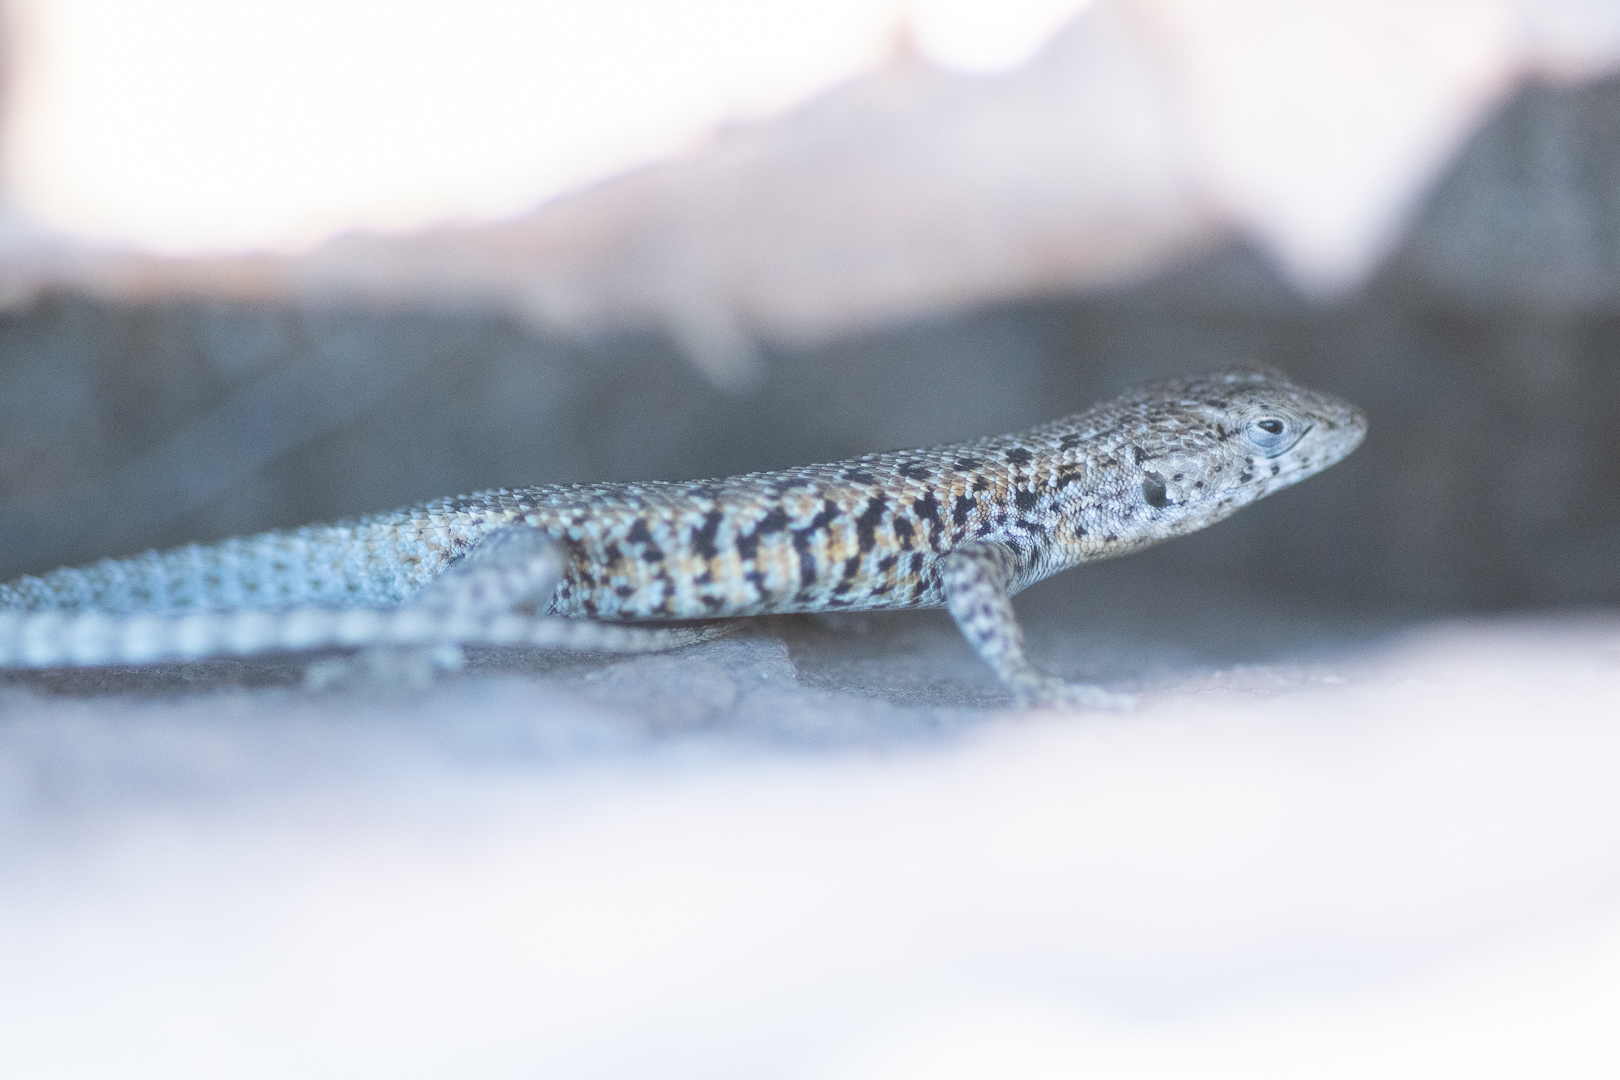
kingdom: Animalia
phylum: Chordata
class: Squamata
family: Liolaemidae
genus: Liolaemus
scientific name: Liolaemus platei
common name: Braided tree iguana
